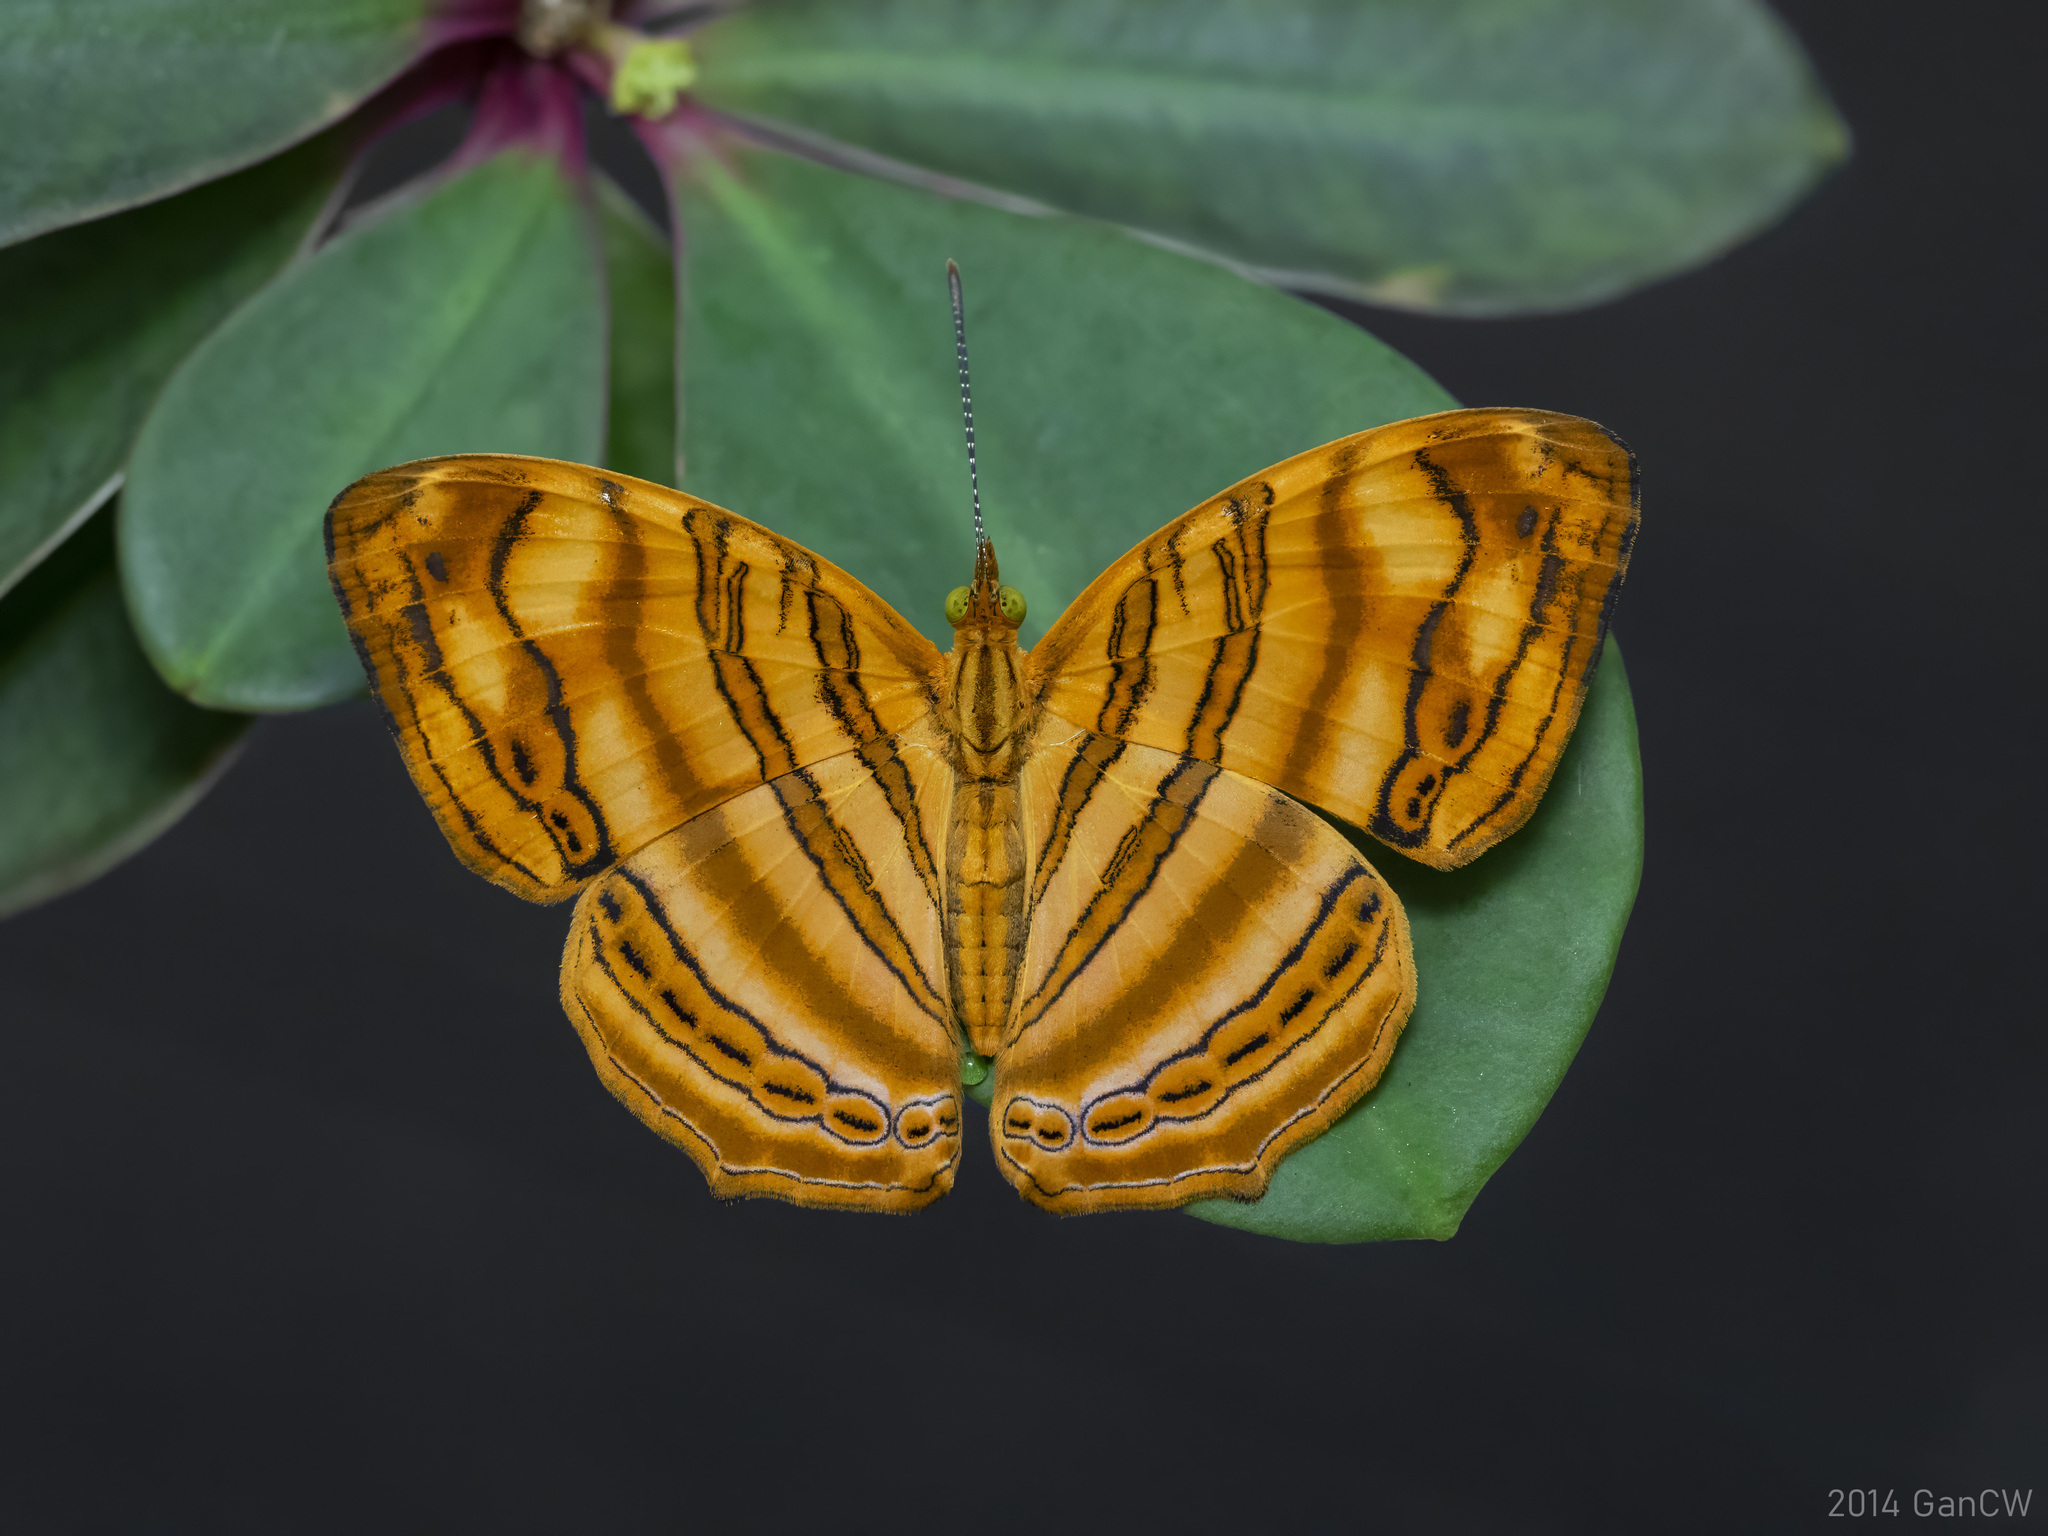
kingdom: Animalia
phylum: Arthropoda
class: Insecta
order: Lepidoptera
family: Nymphalidae
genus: Chersonesia
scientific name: Chersonesia rahria
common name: Wavy maplet
